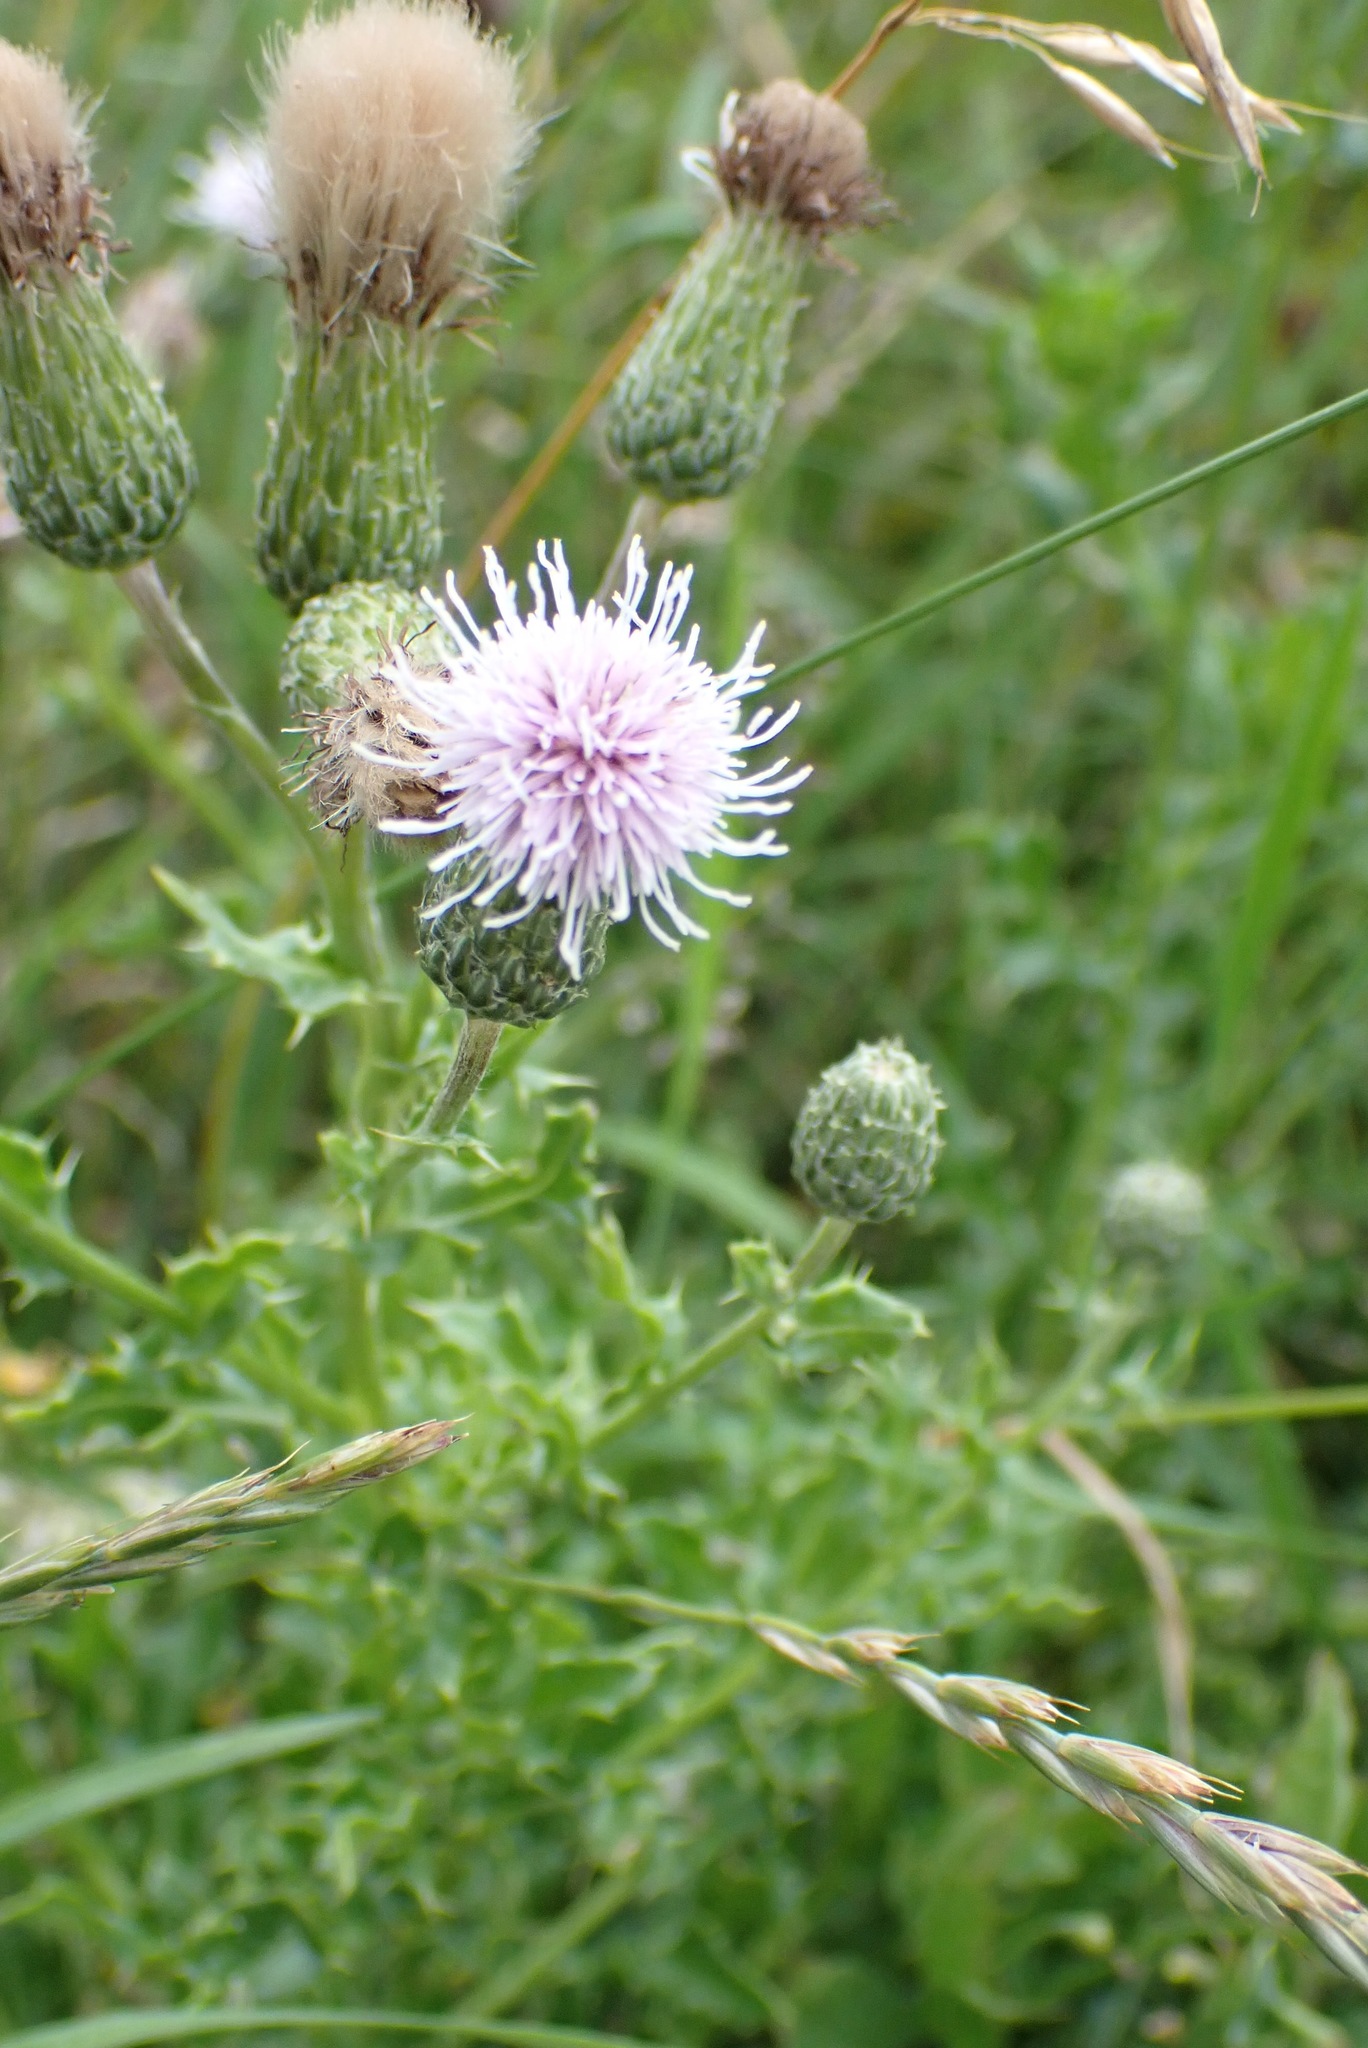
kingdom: Plantae
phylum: Tracheophyta
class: Magnoliopsida
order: Asterales
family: Asteraceae
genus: Cirsium
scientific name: Cirsium arvense
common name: Creeping thistle
